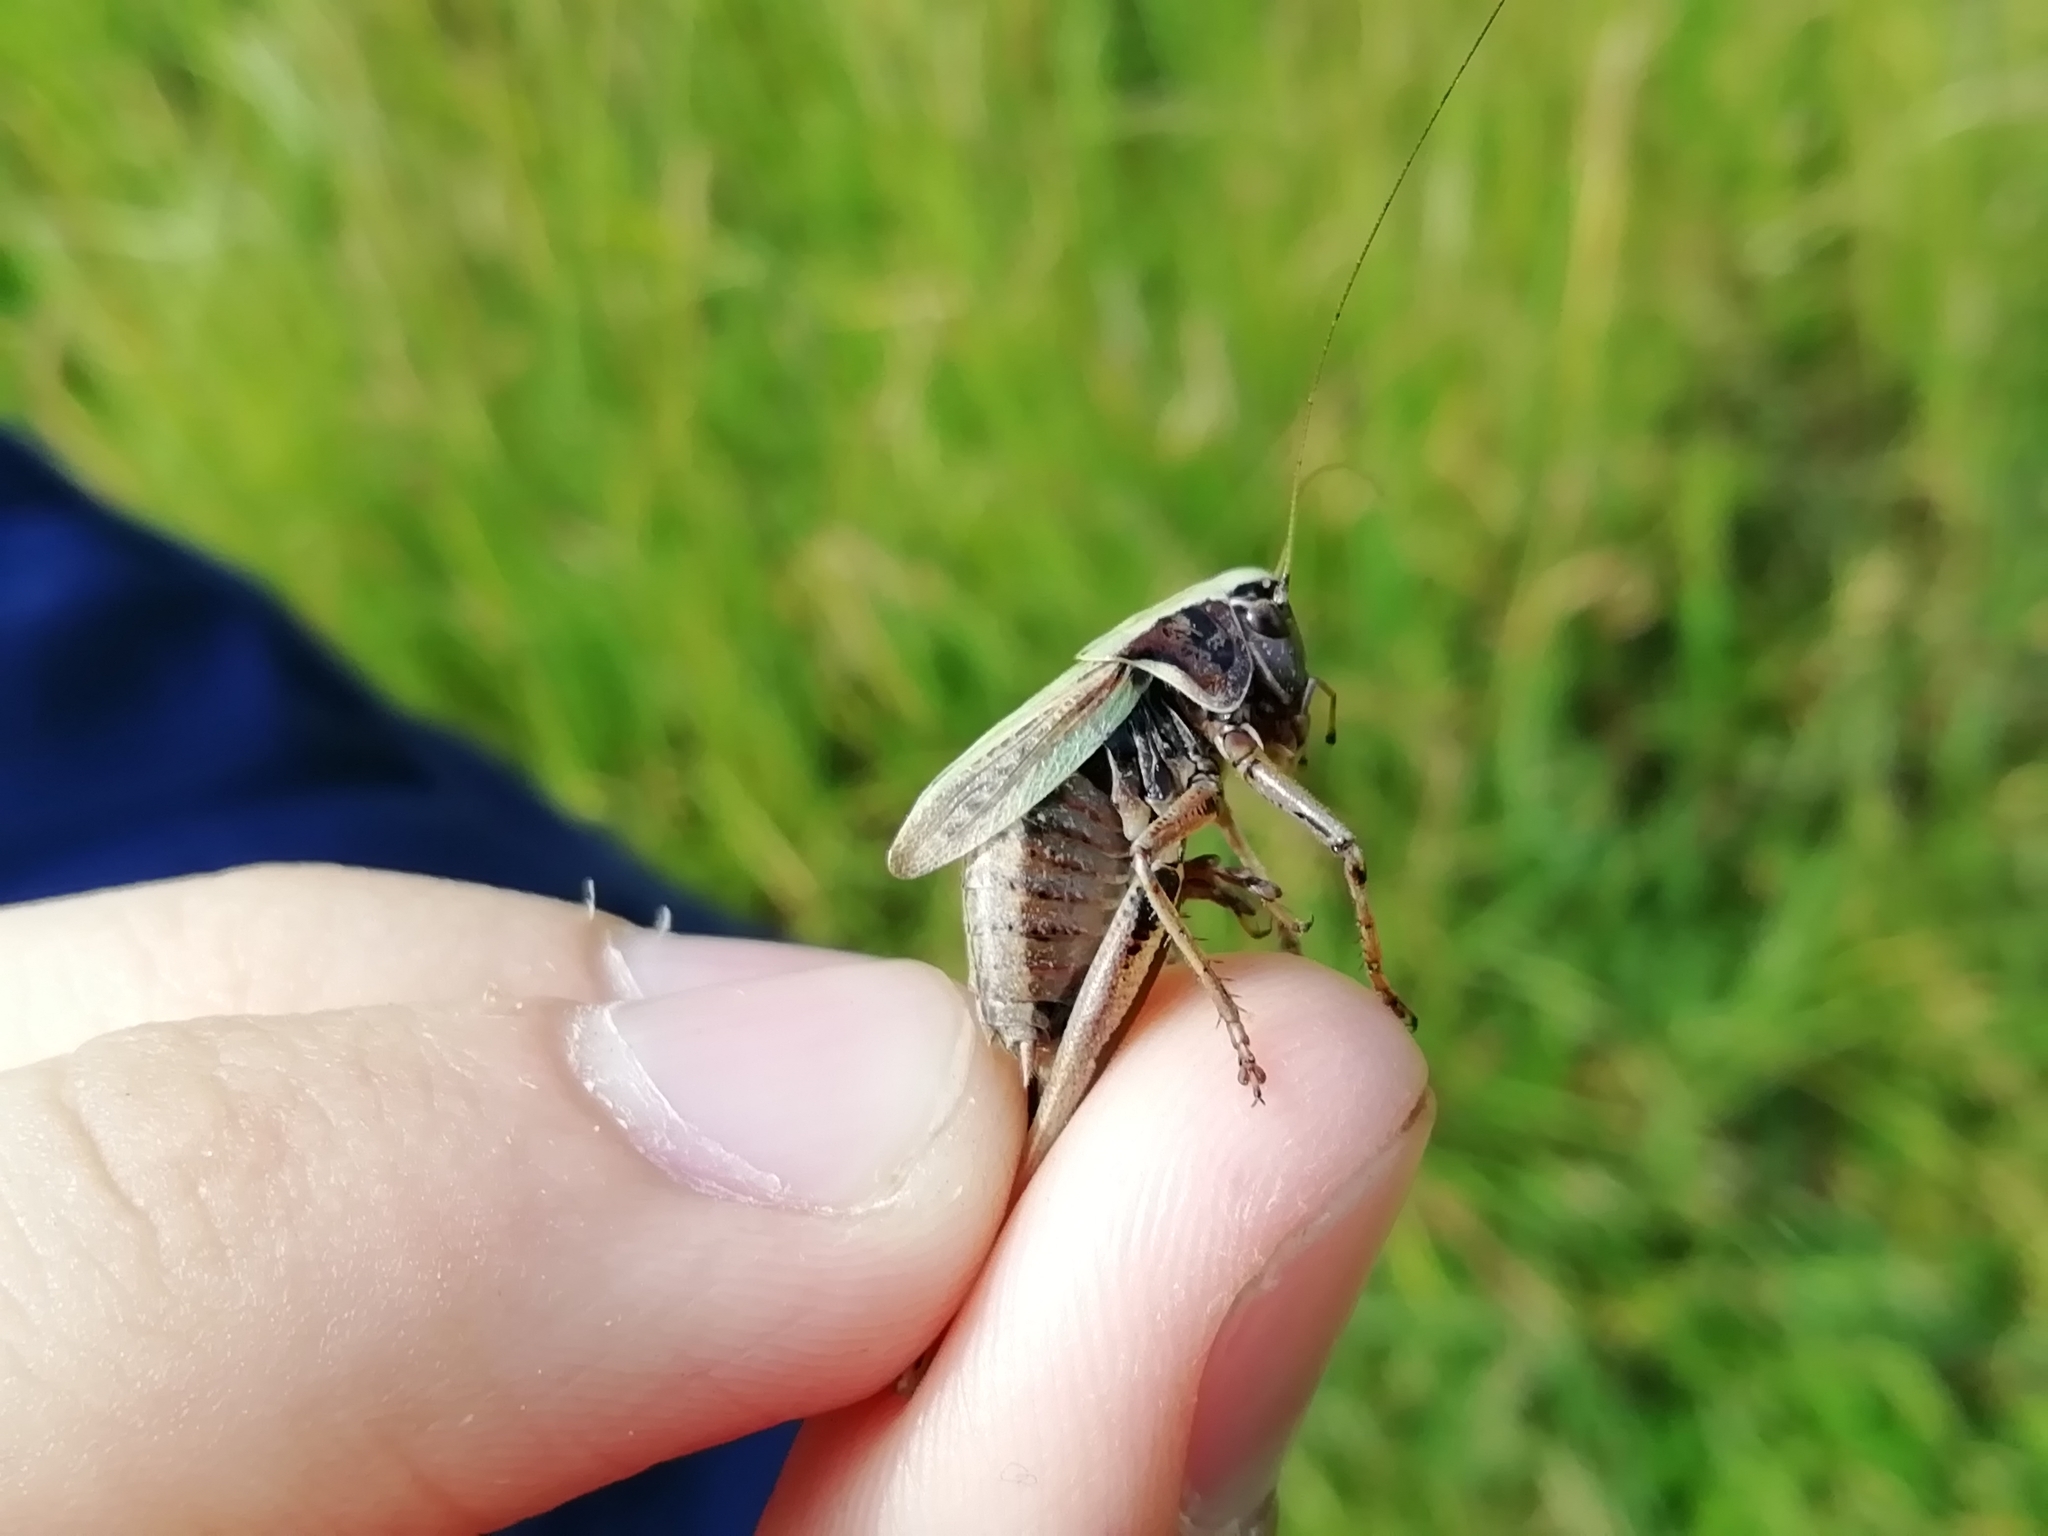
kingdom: Animalia
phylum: Arthropoda
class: Insecta
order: Orthoptera
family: Tettigoniidae
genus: Metrioptera
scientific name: Metrioptera brachyptera
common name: Bog bush-cricket
